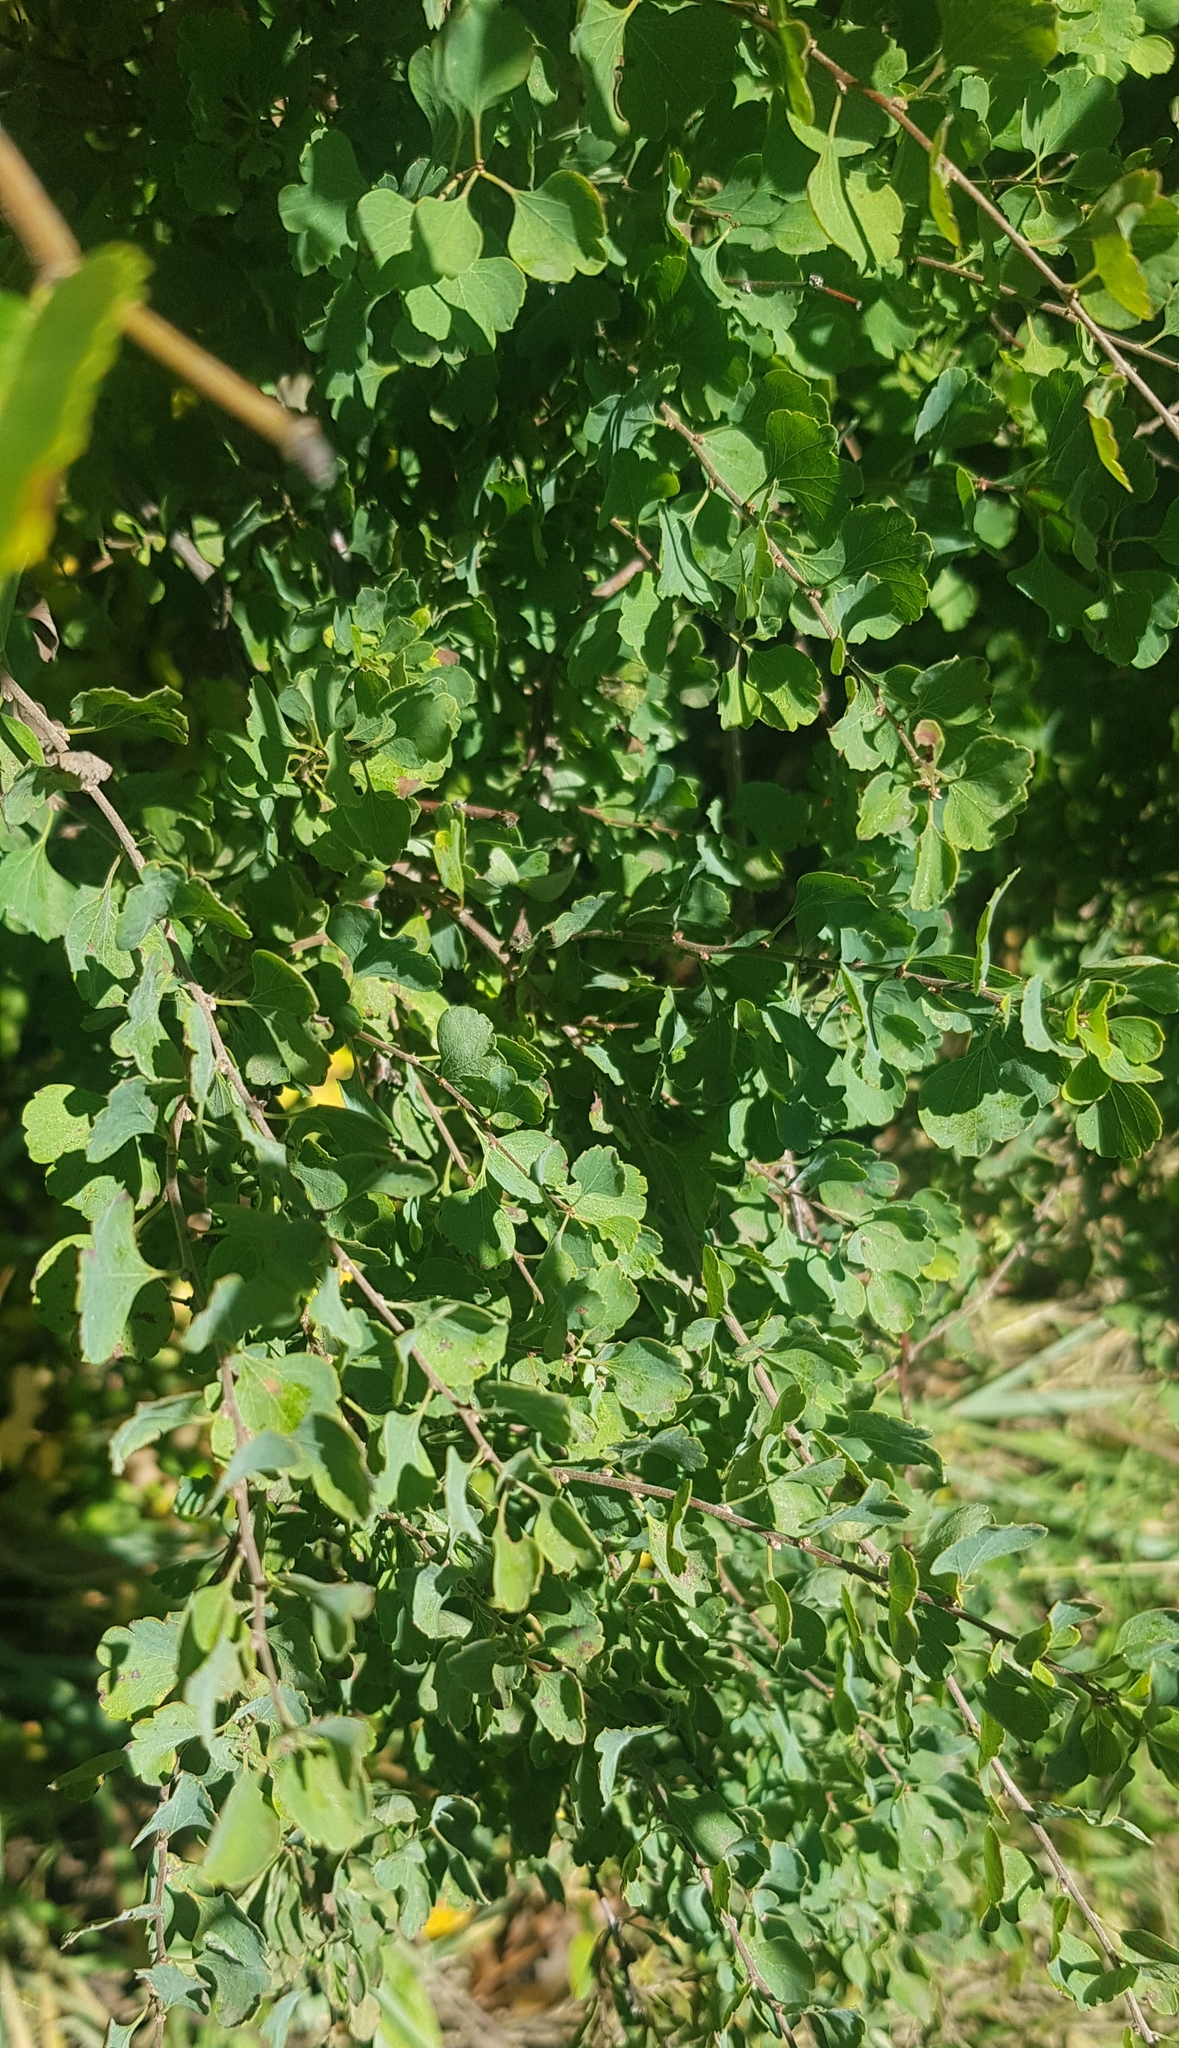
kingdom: Plantae
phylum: Tracheophyta
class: Magnoliopsida
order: Rosales
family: Rosaceae
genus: Spiraea
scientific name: Spiraea aquilegifolia
